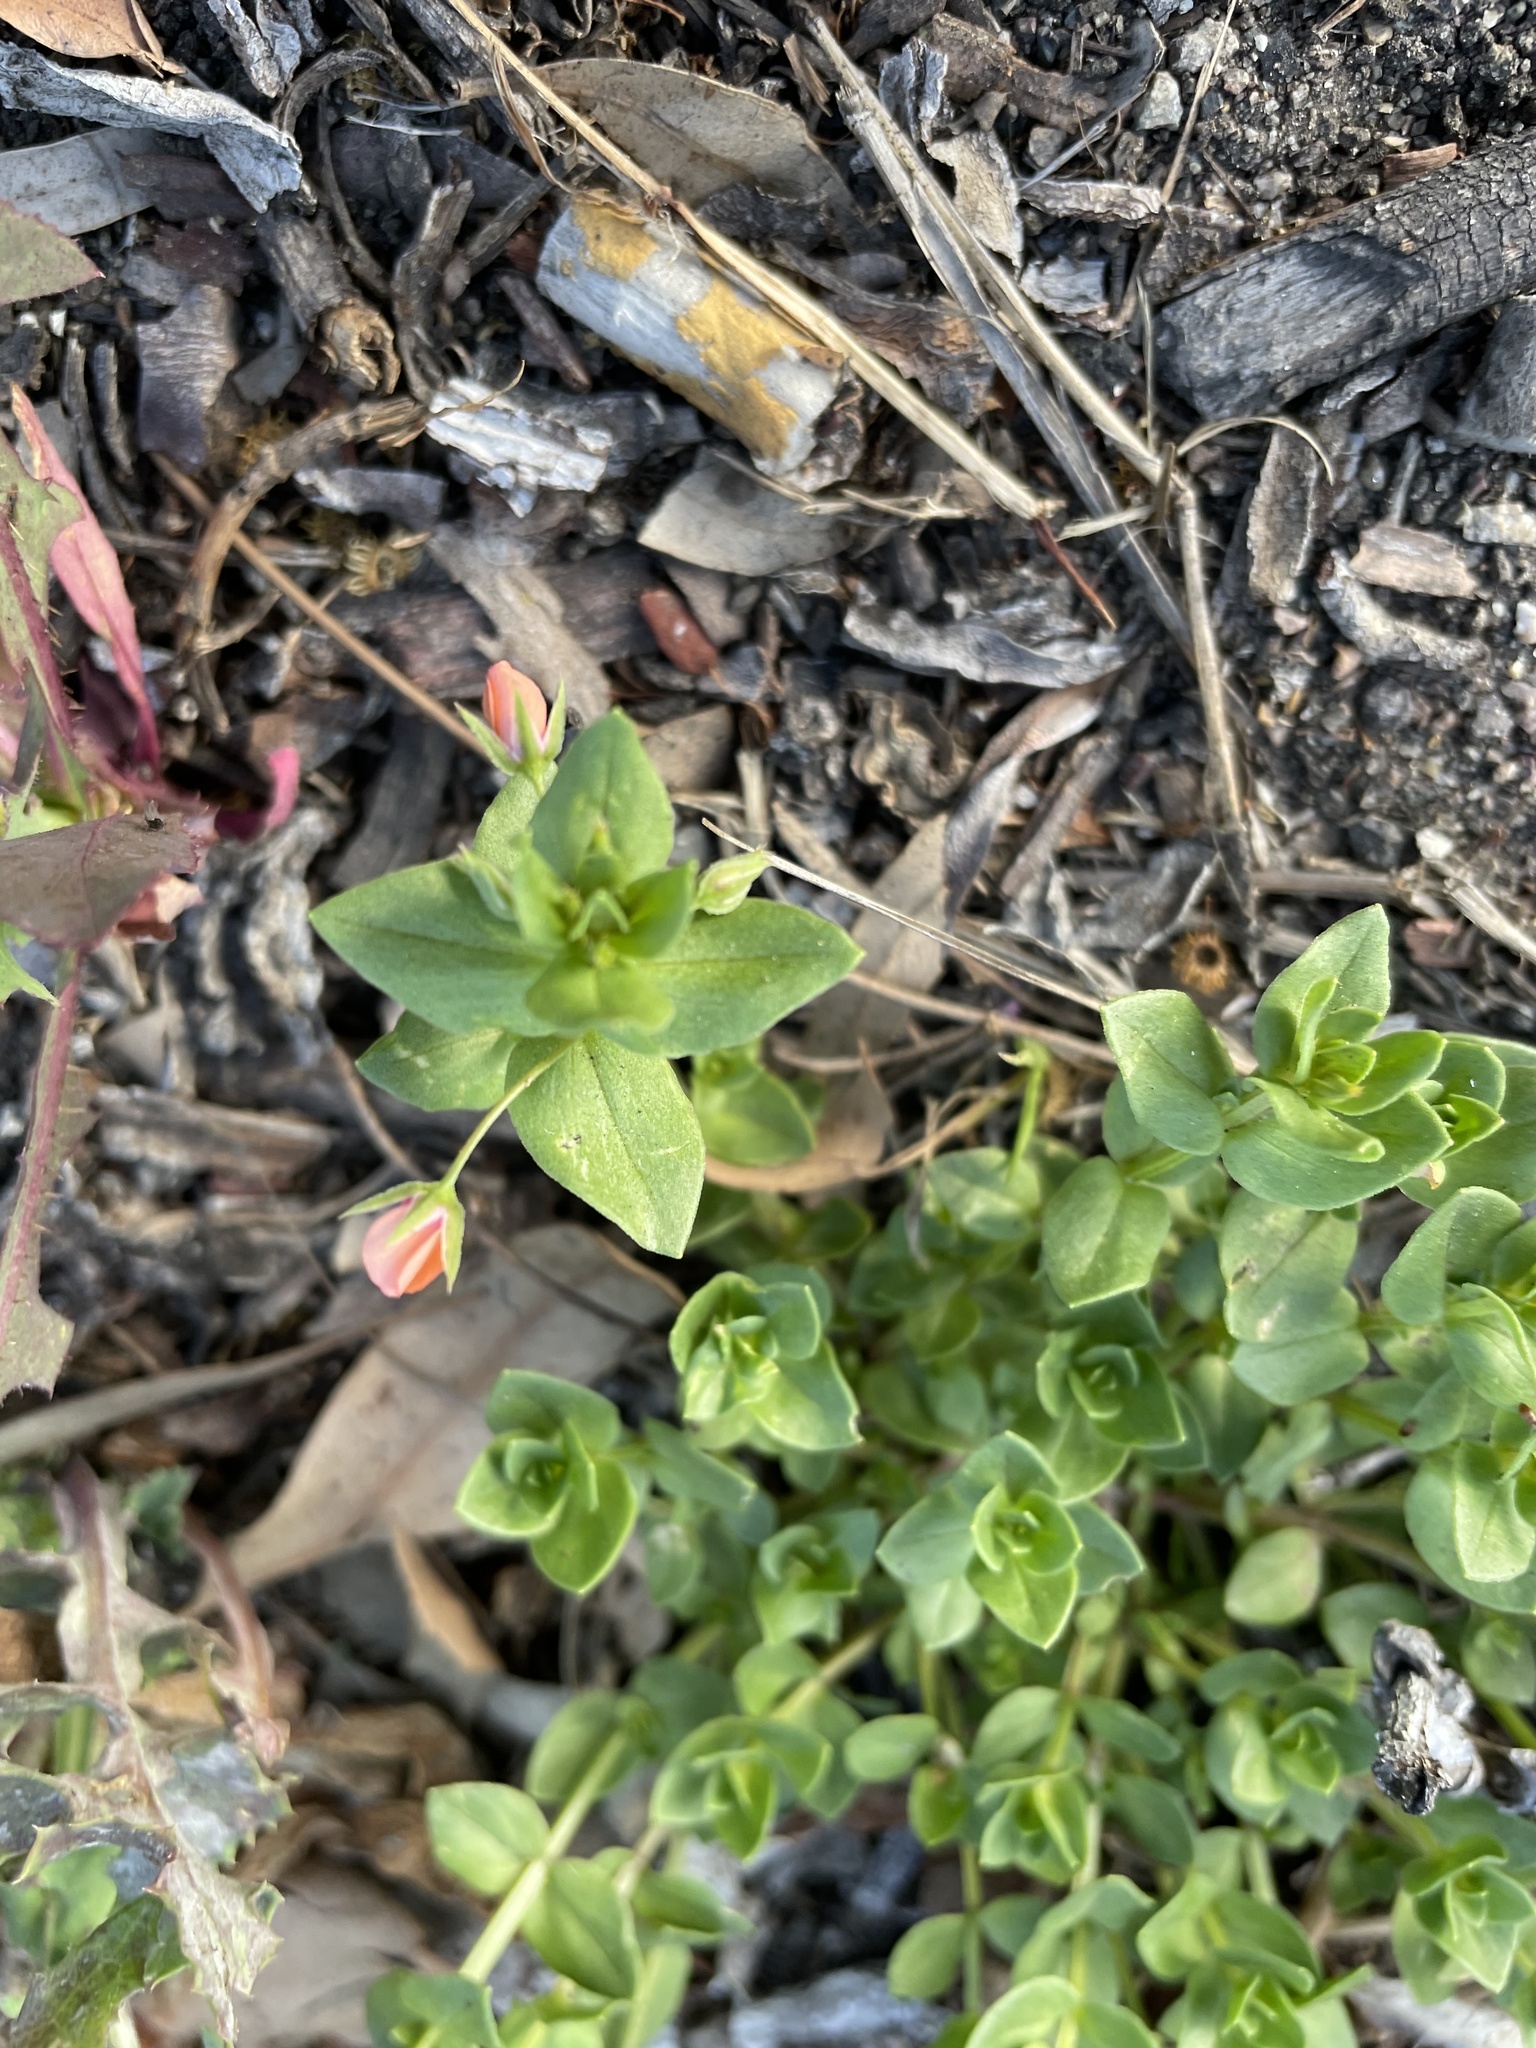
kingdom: Plantae
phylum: Tracheophyta
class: Magnoliopsida
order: Ericales
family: Primulaceae
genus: Lysimachia
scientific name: Lysimachia arvensis
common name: Scarlet pimpernel
